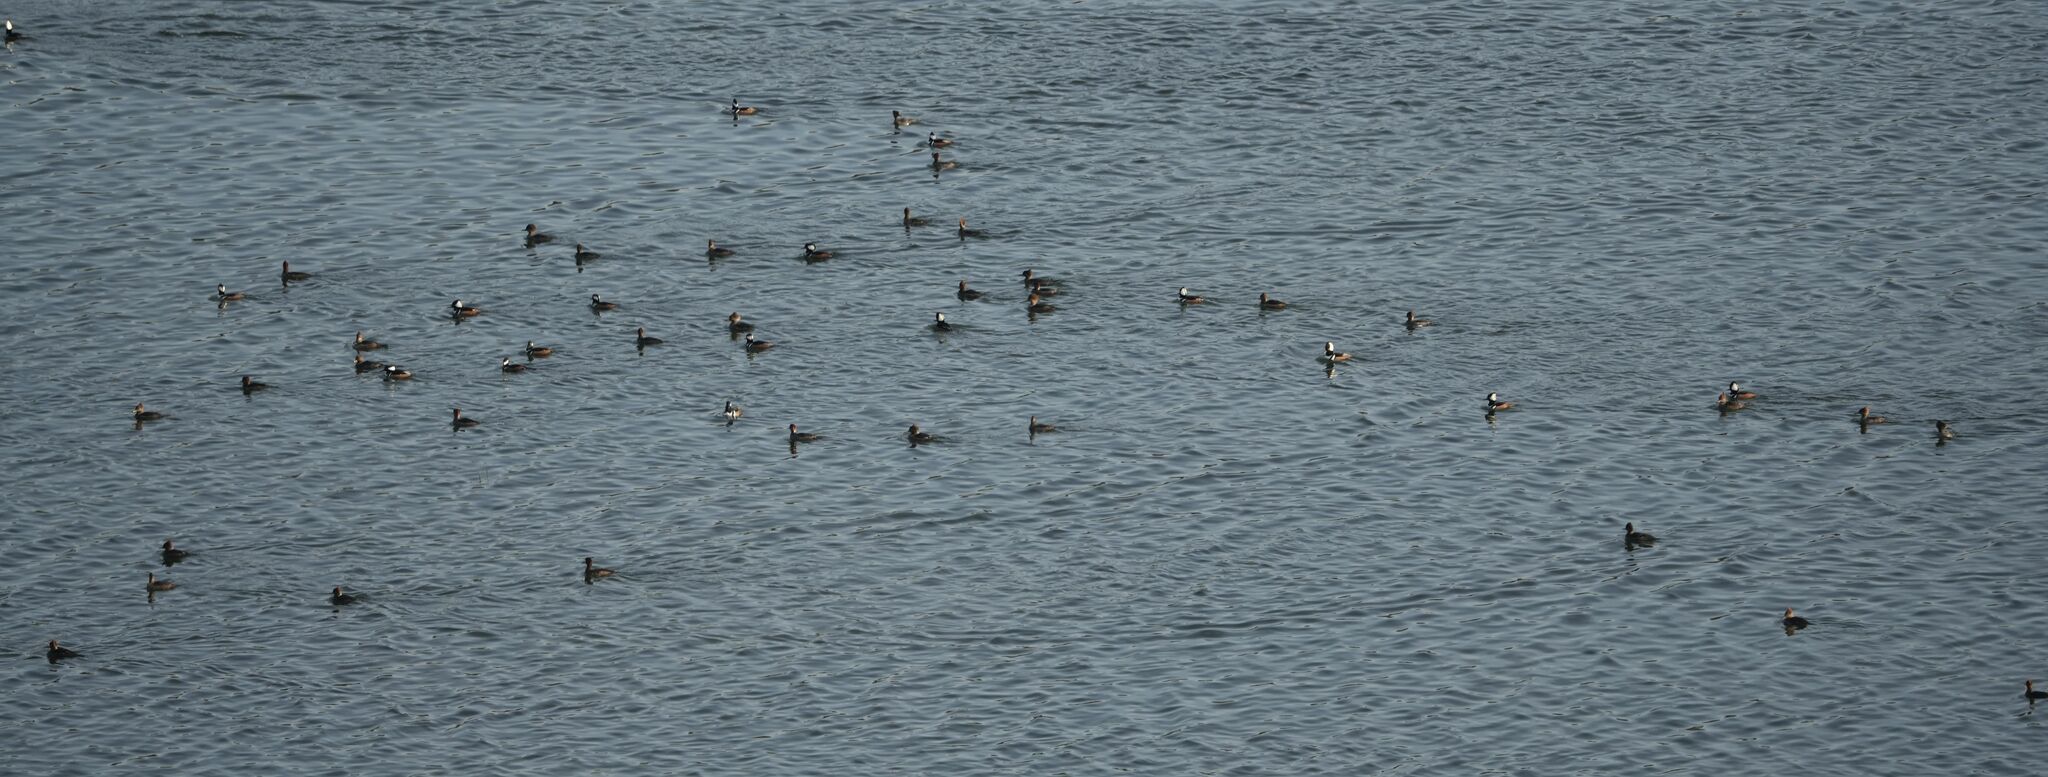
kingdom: Animalia
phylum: Chordata
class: Aves
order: Anseriformes
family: Anatidae
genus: Lophodytes
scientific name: Lophodytes cucullatus
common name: Hooded merganser
